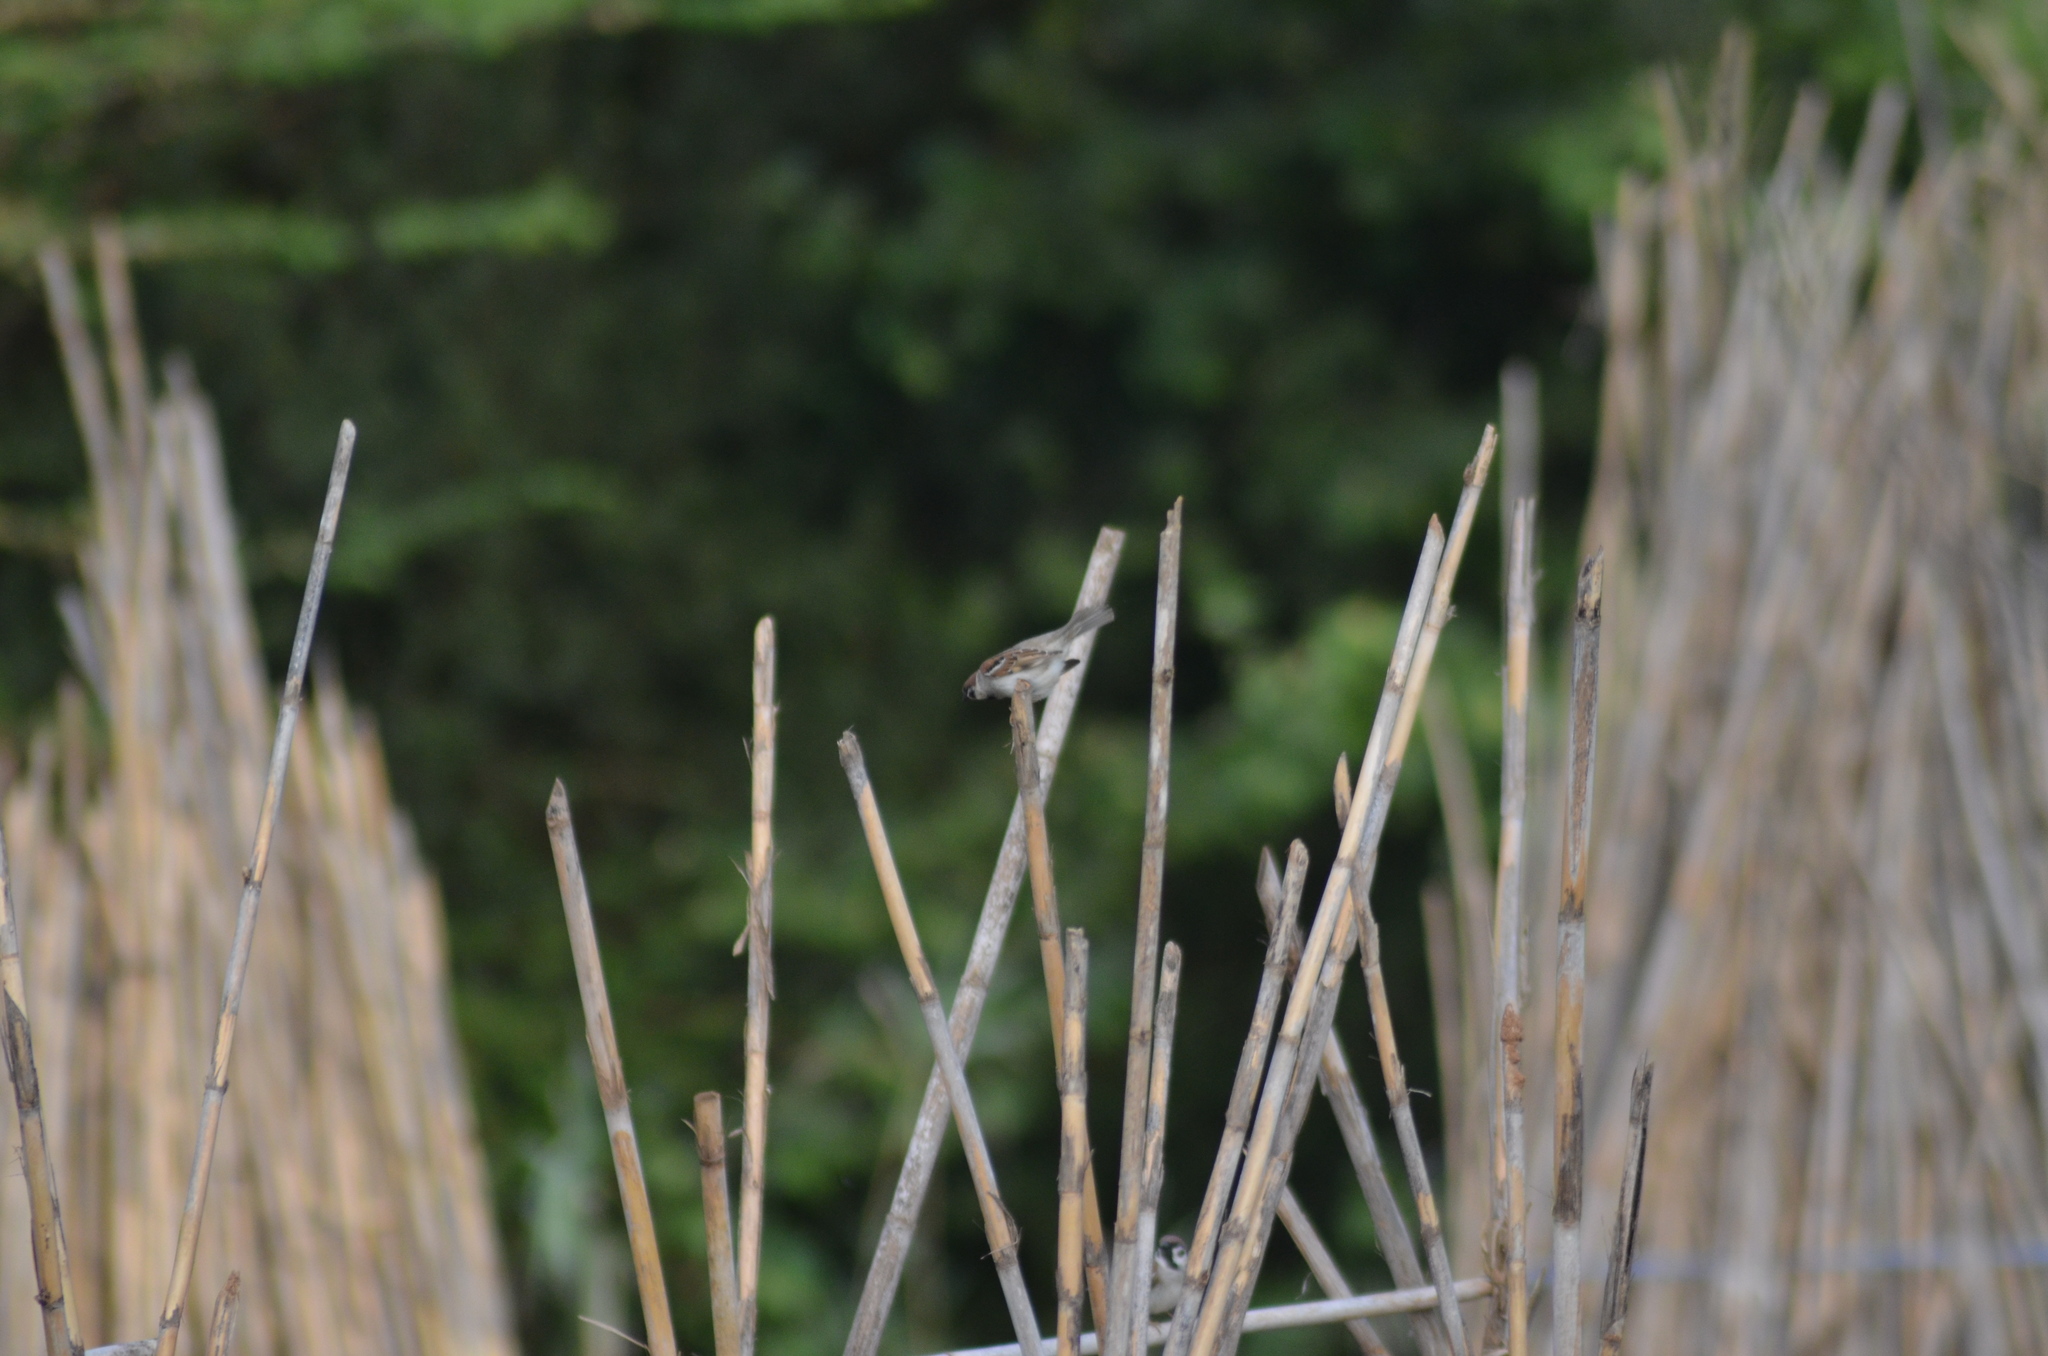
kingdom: Animalia
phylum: Chordata
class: Aves
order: Passeriformes
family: Passeridae
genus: Passer
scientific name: Passer montanus
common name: Eurasian tree sparrow
